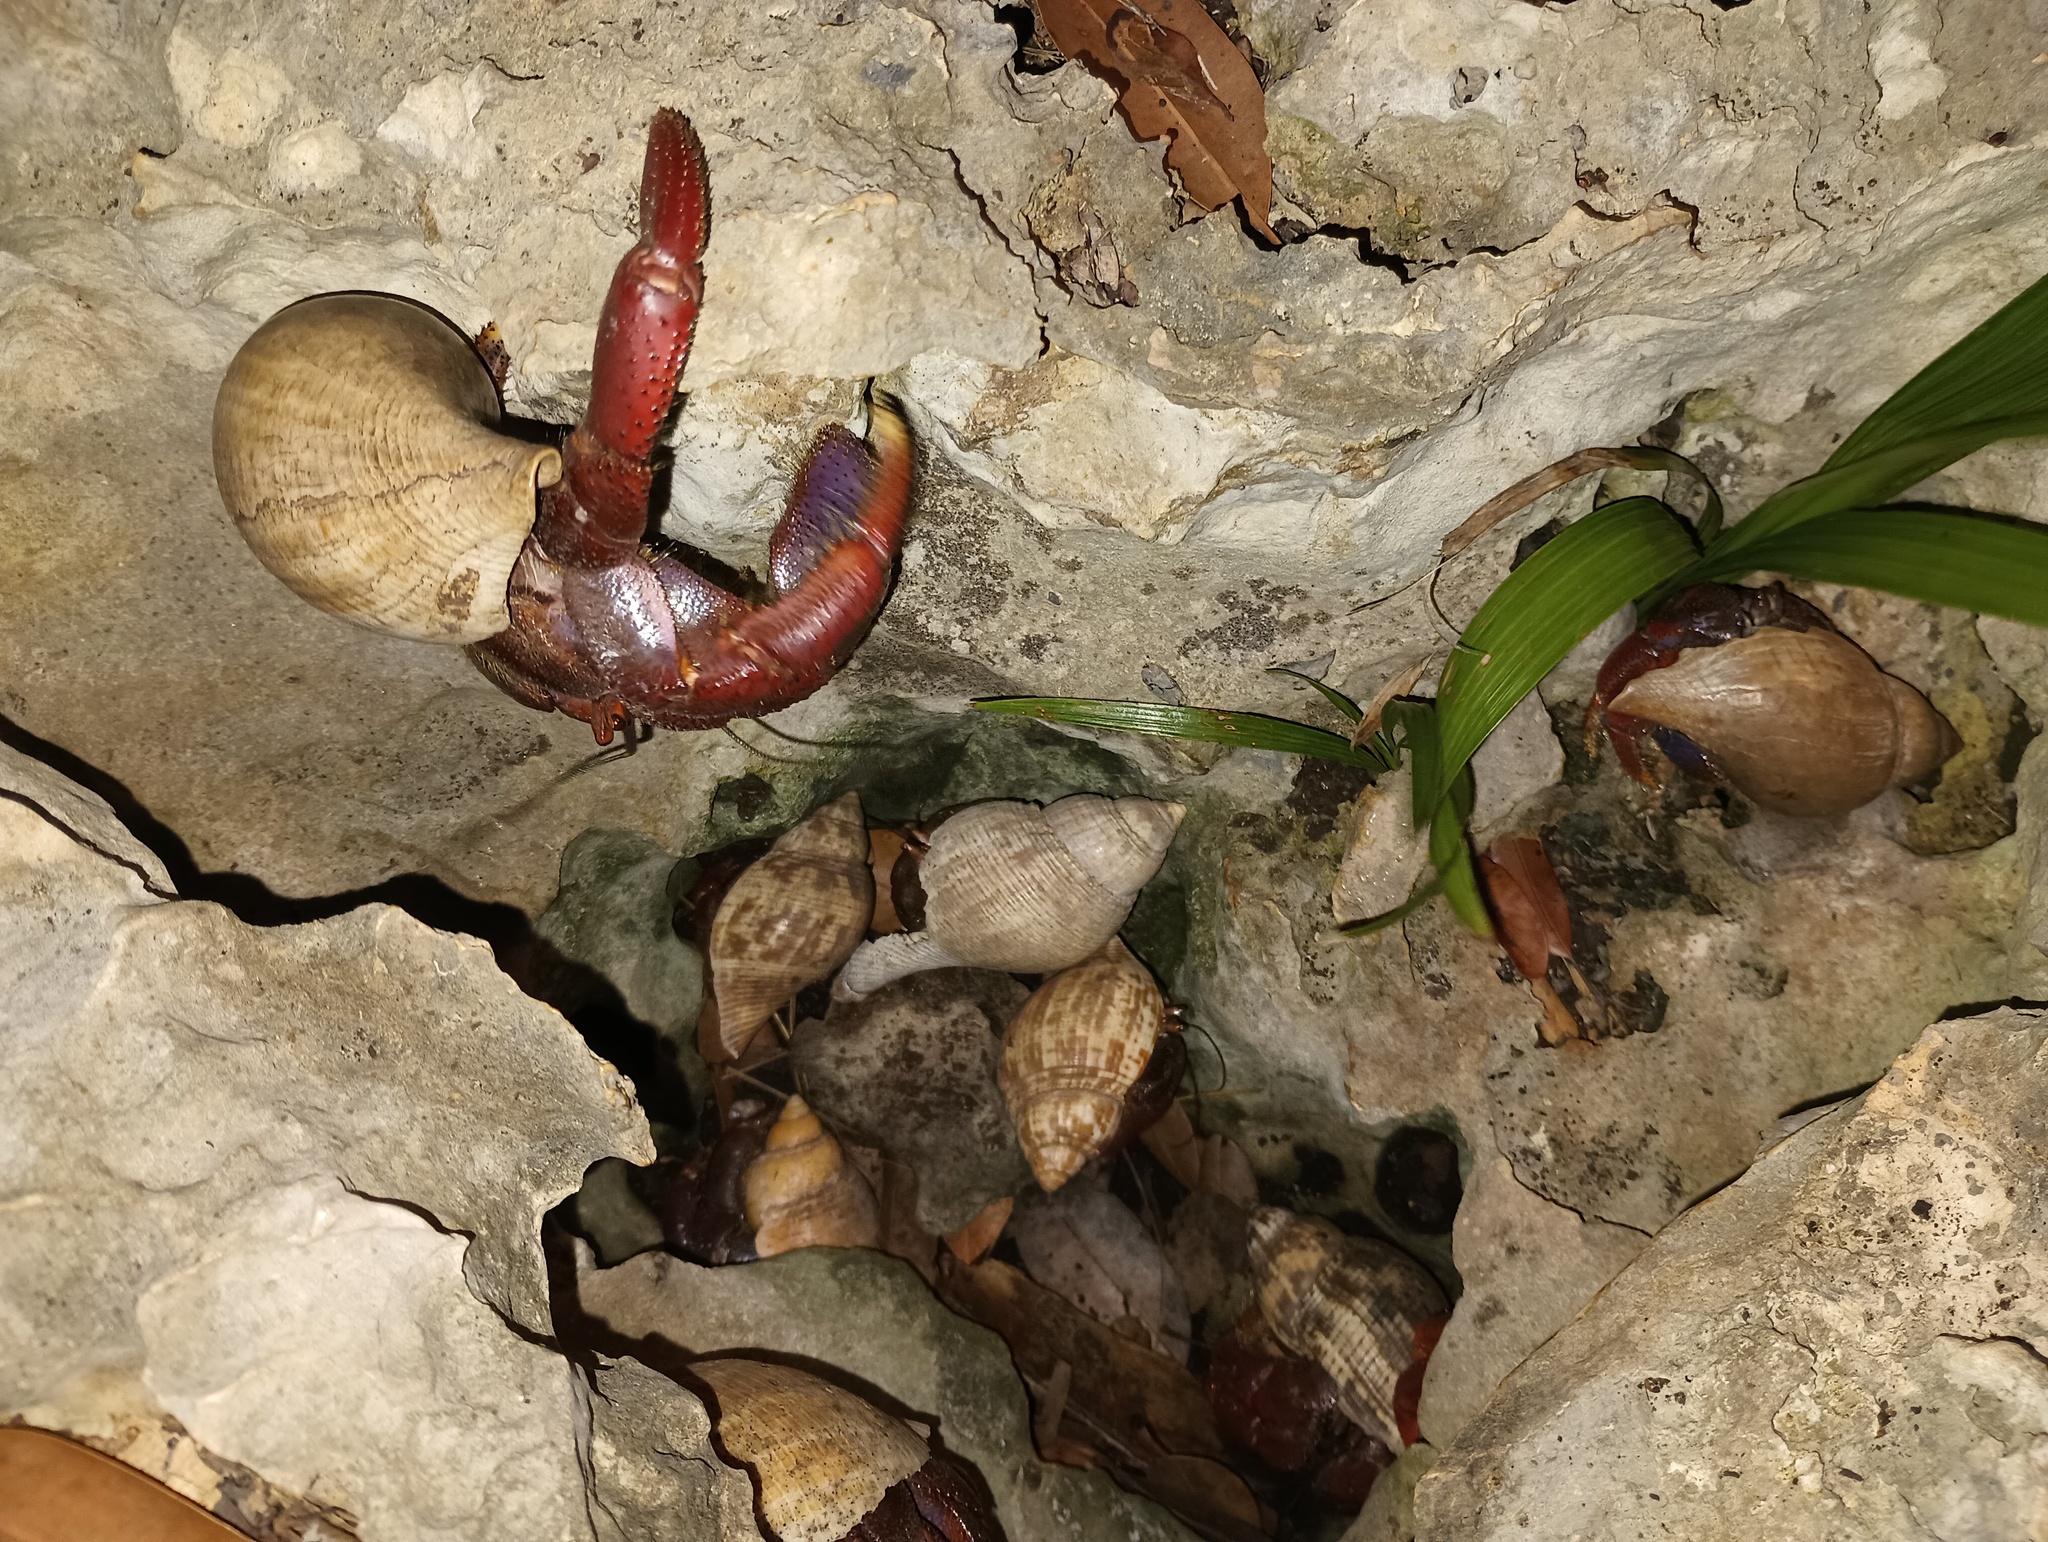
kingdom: Animalia
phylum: Arthropoda
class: Malacostraca
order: Decapoda
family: Coenobitidae
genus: Coenobita
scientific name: Coenobita clypeatus
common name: Caribbean hermit crab
